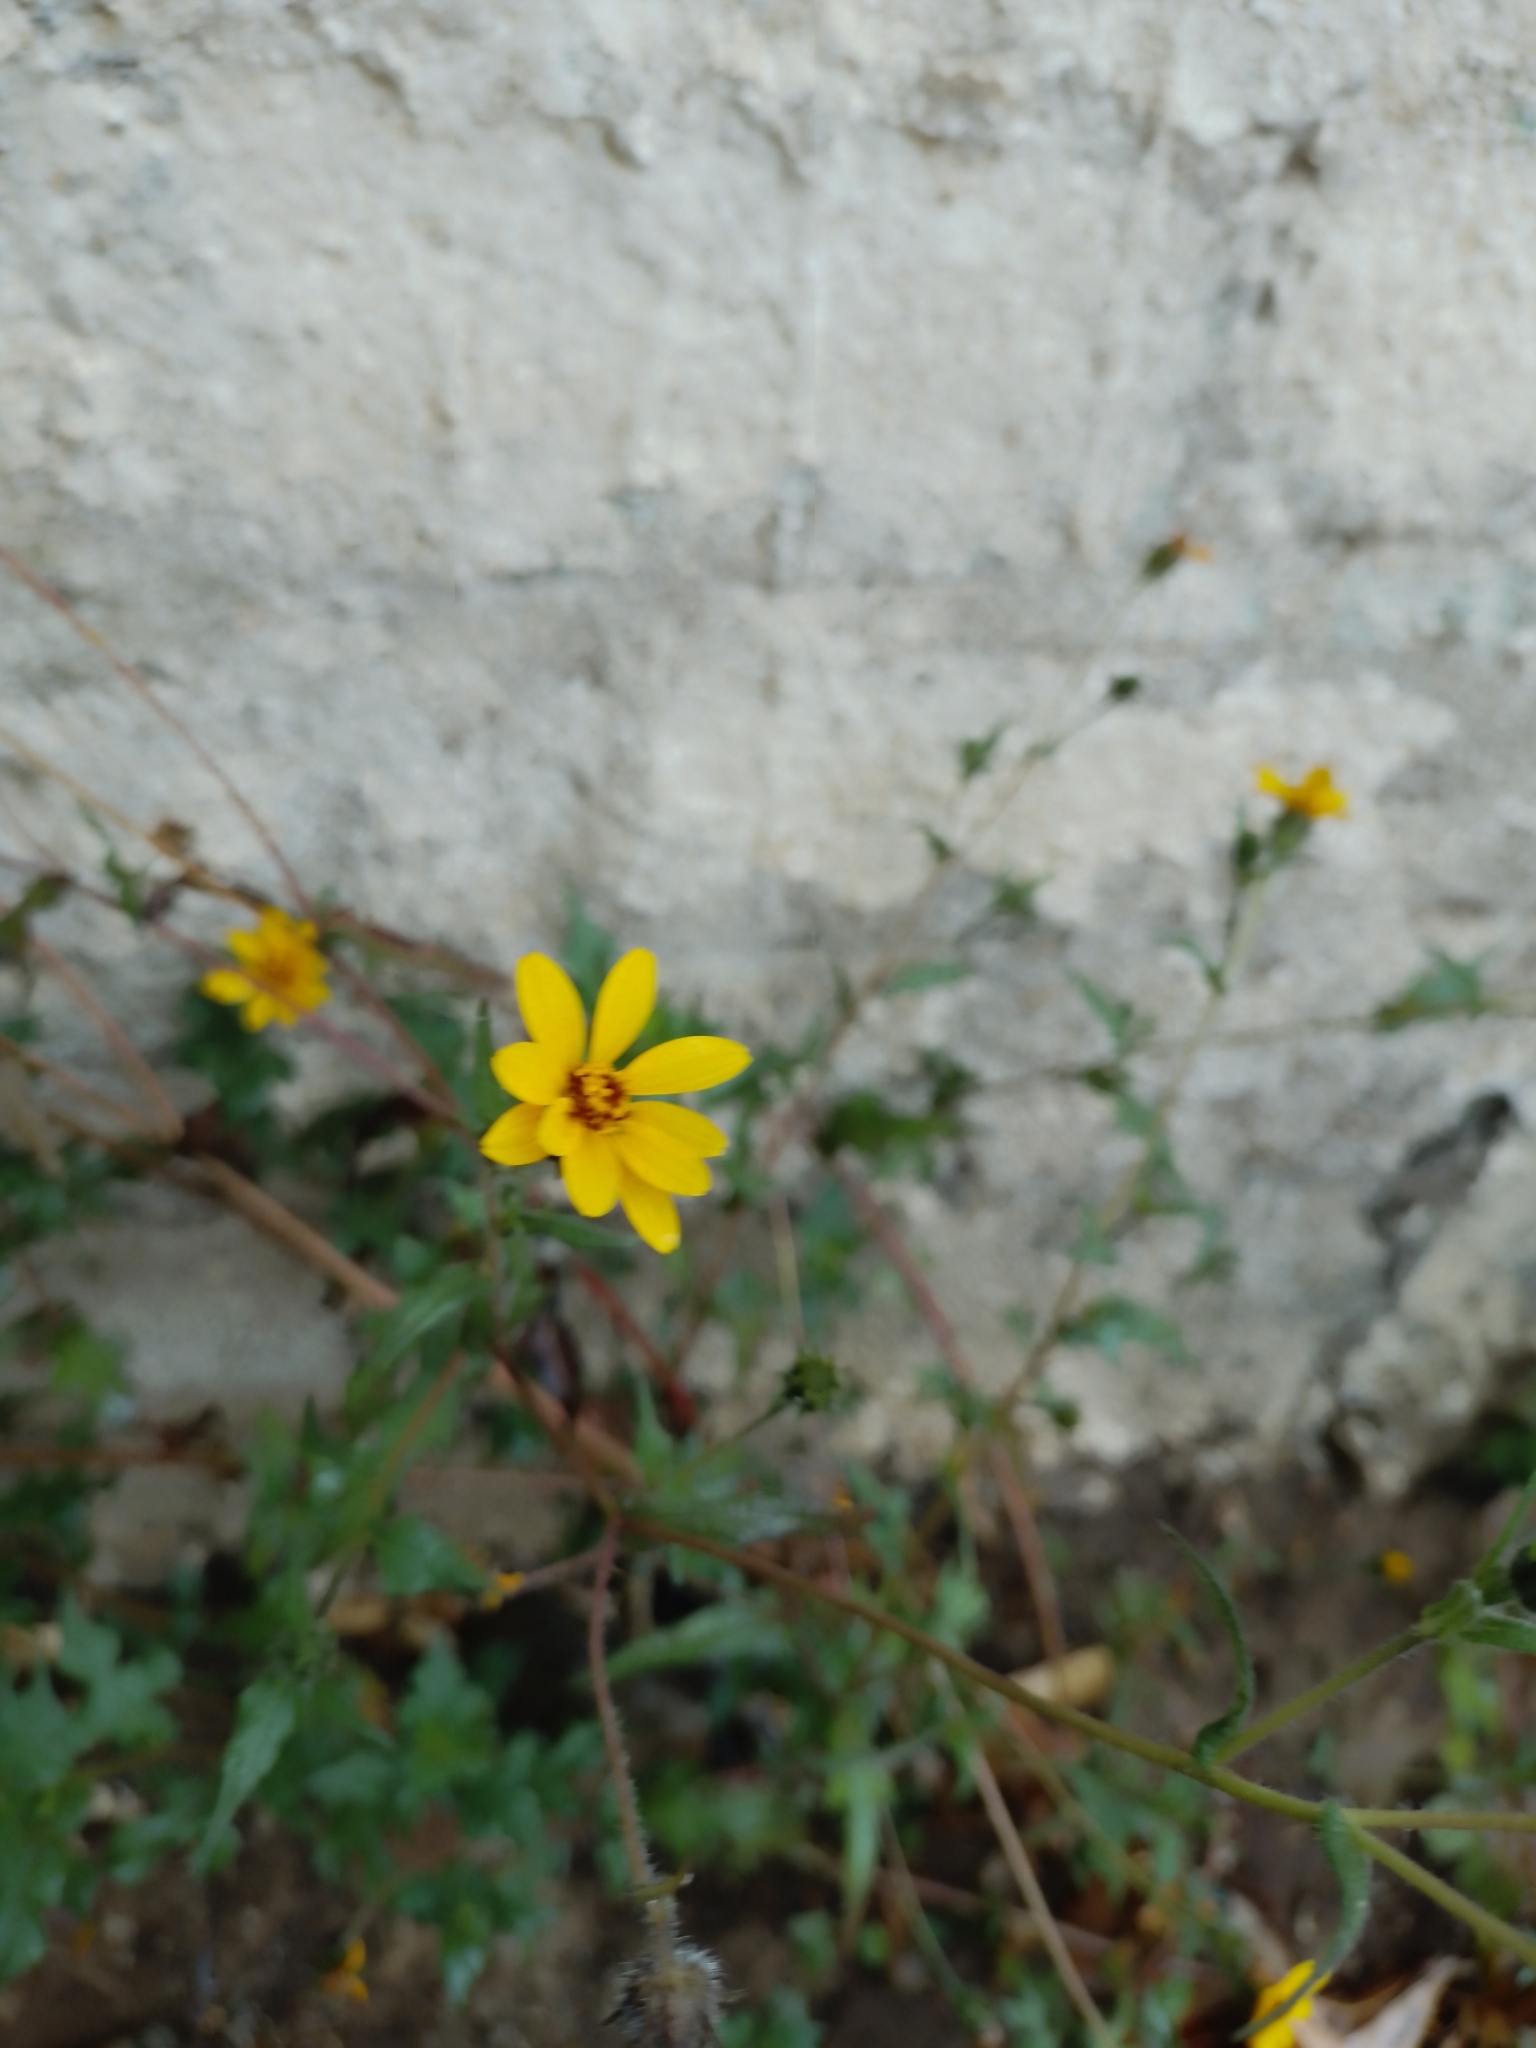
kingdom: Plantae
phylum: Tracheophyta
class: Magnoliopsida
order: Asterales
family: Asteraceae
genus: Simsia
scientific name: Simsia amplexicaulis
